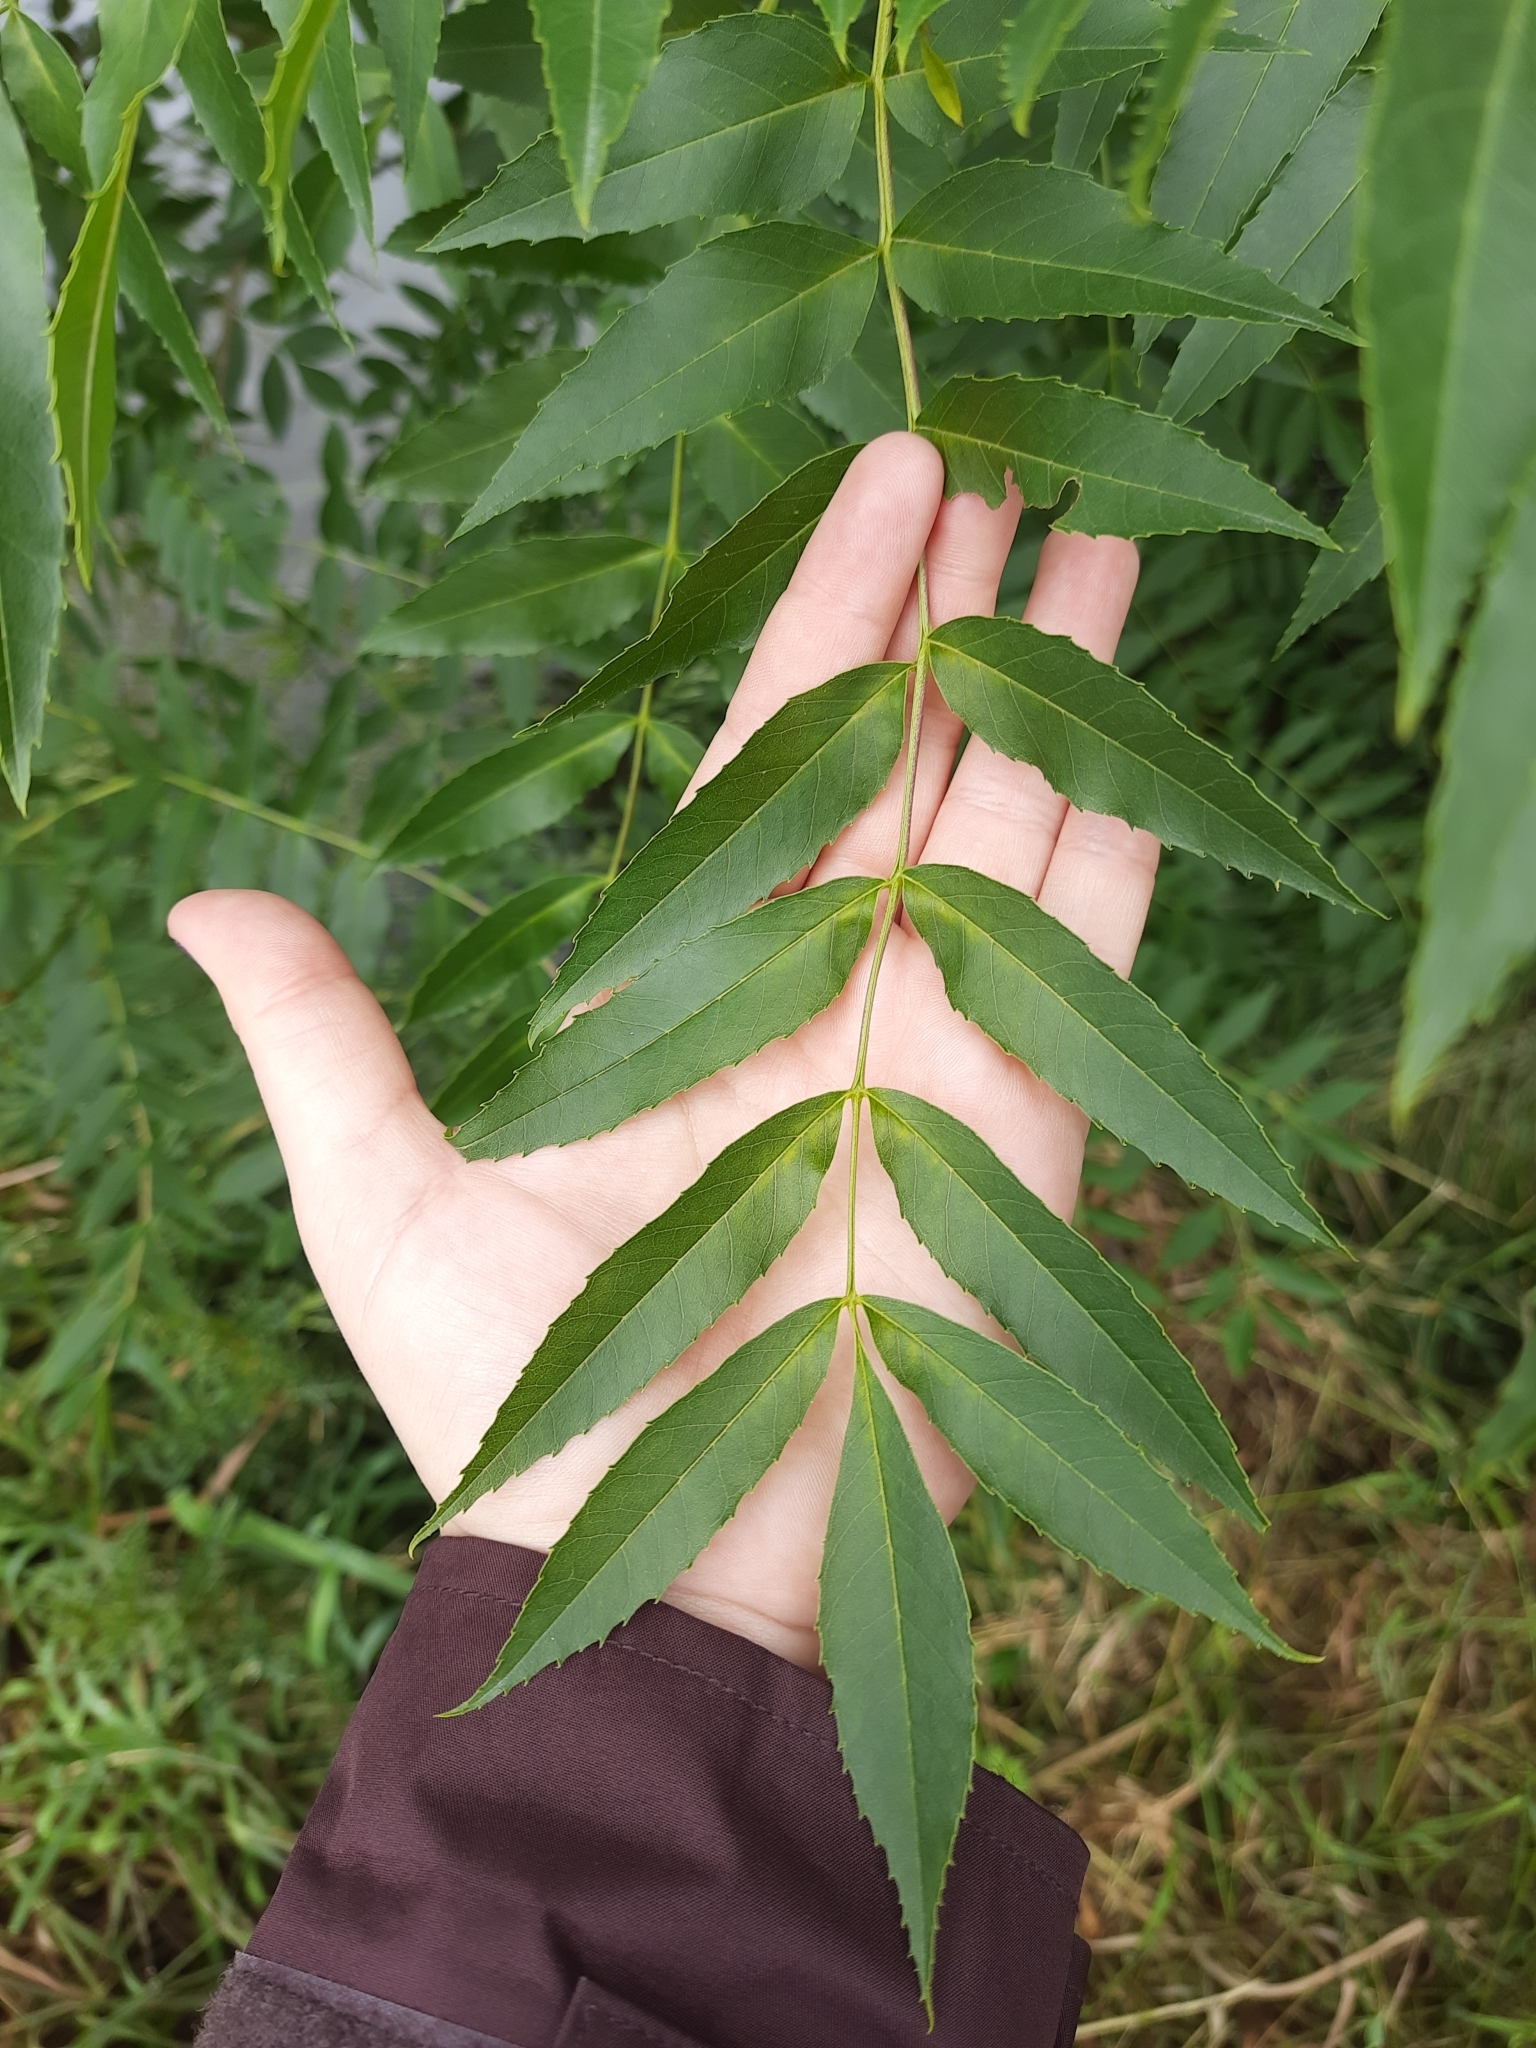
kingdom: Plantae
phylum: Tracheophyta
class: Magnoliopsida
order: Lamiales
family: Oleaceae
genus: Fraxinus
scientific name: Fraxinus angustifolia
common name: Narrow-leafed ash
